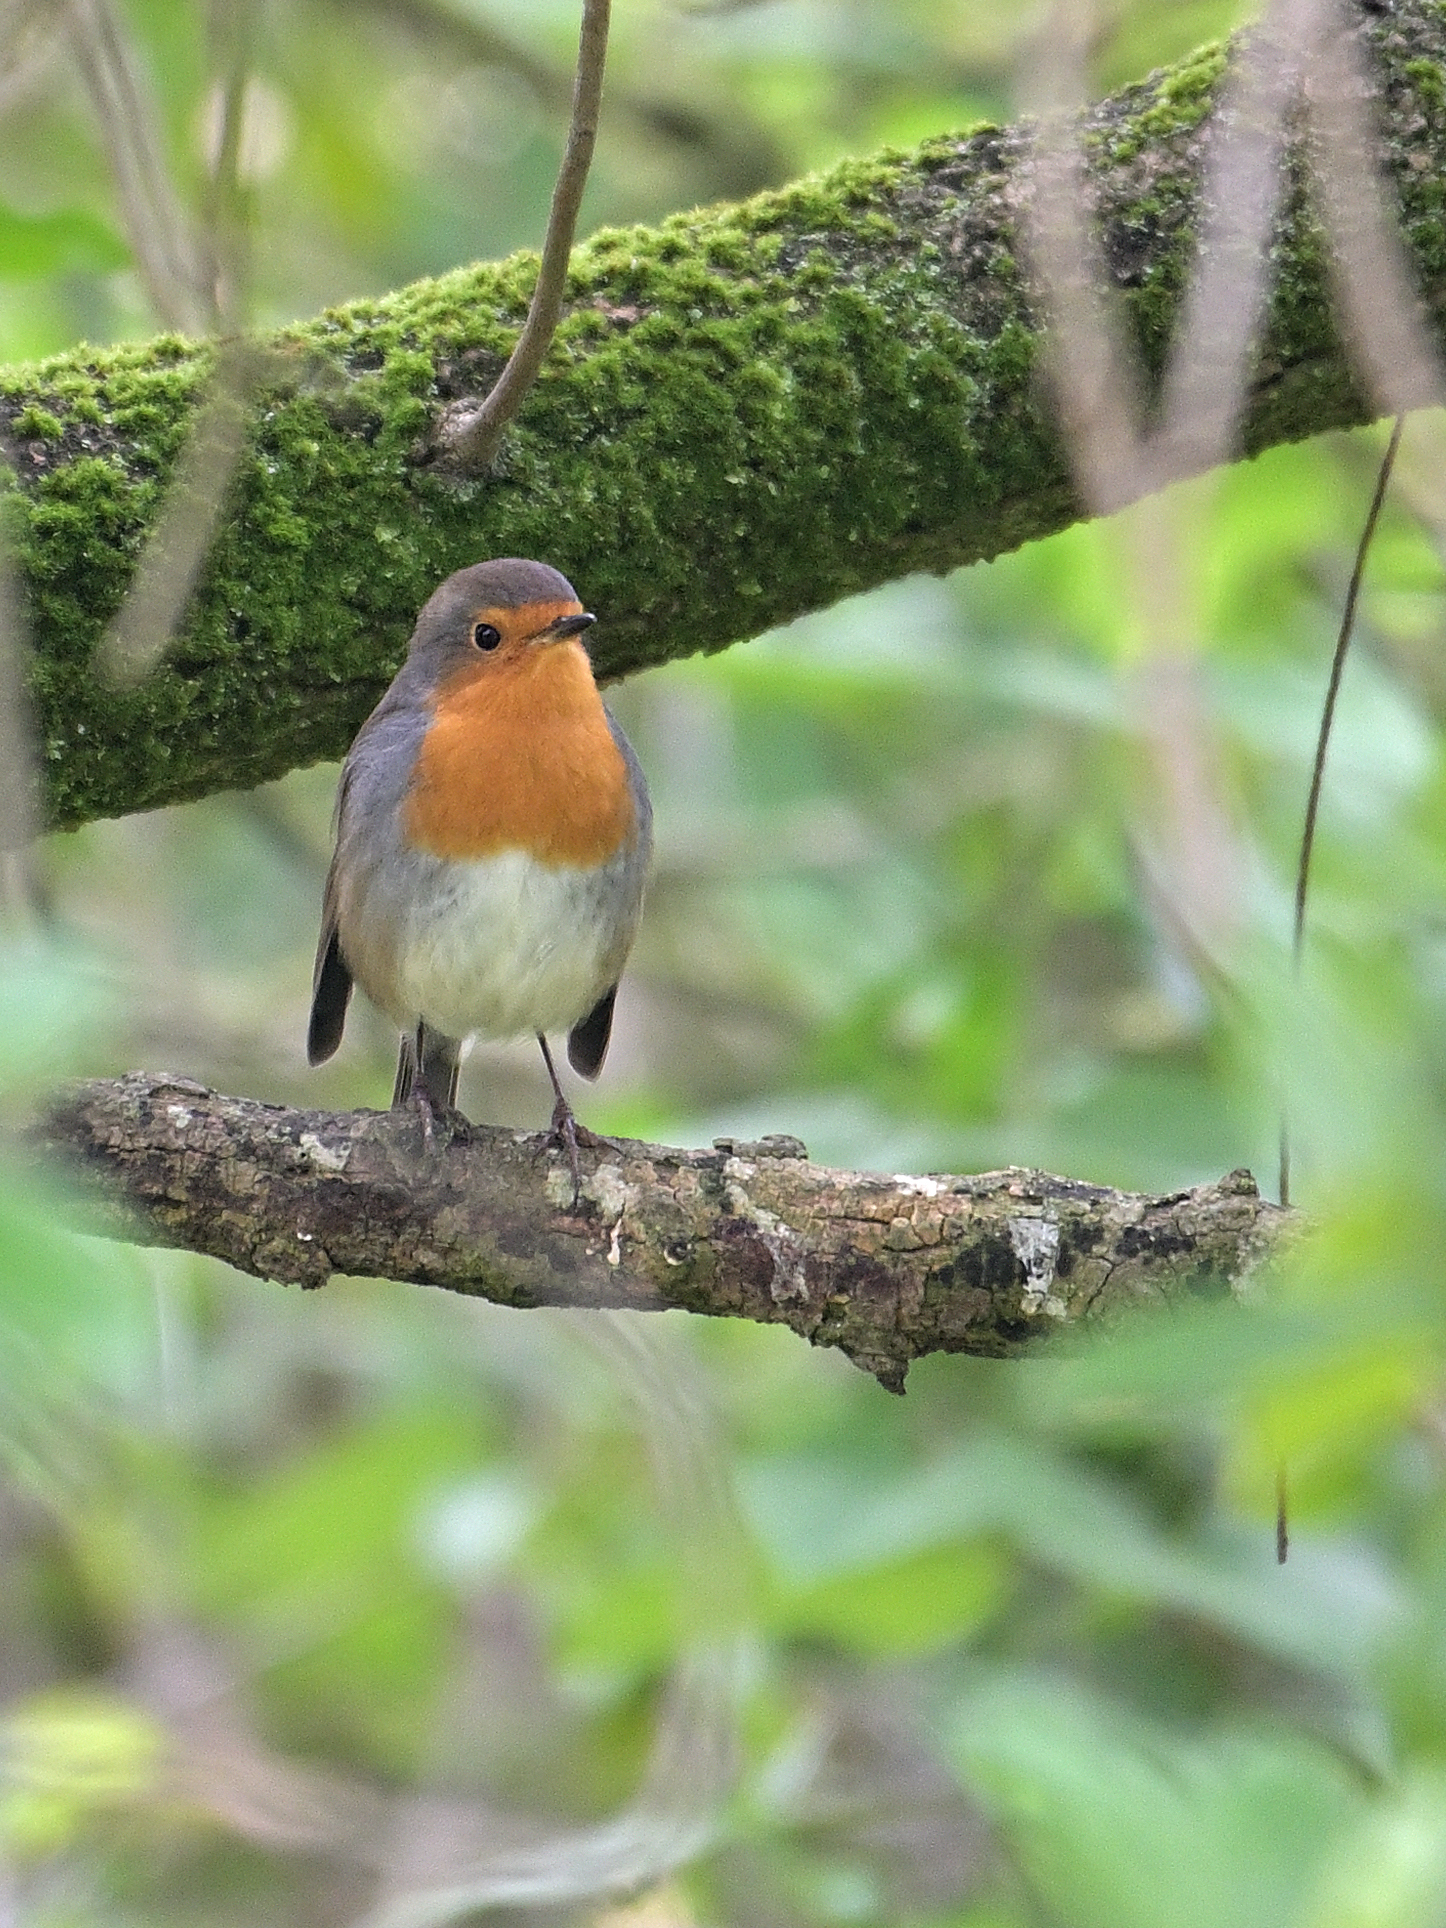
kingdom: Animalia
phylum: Chordata
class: Aves
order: Passeriformes
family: Muscicapidae
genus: Erithacus
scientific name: Erithacus rubecula
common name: European robin
